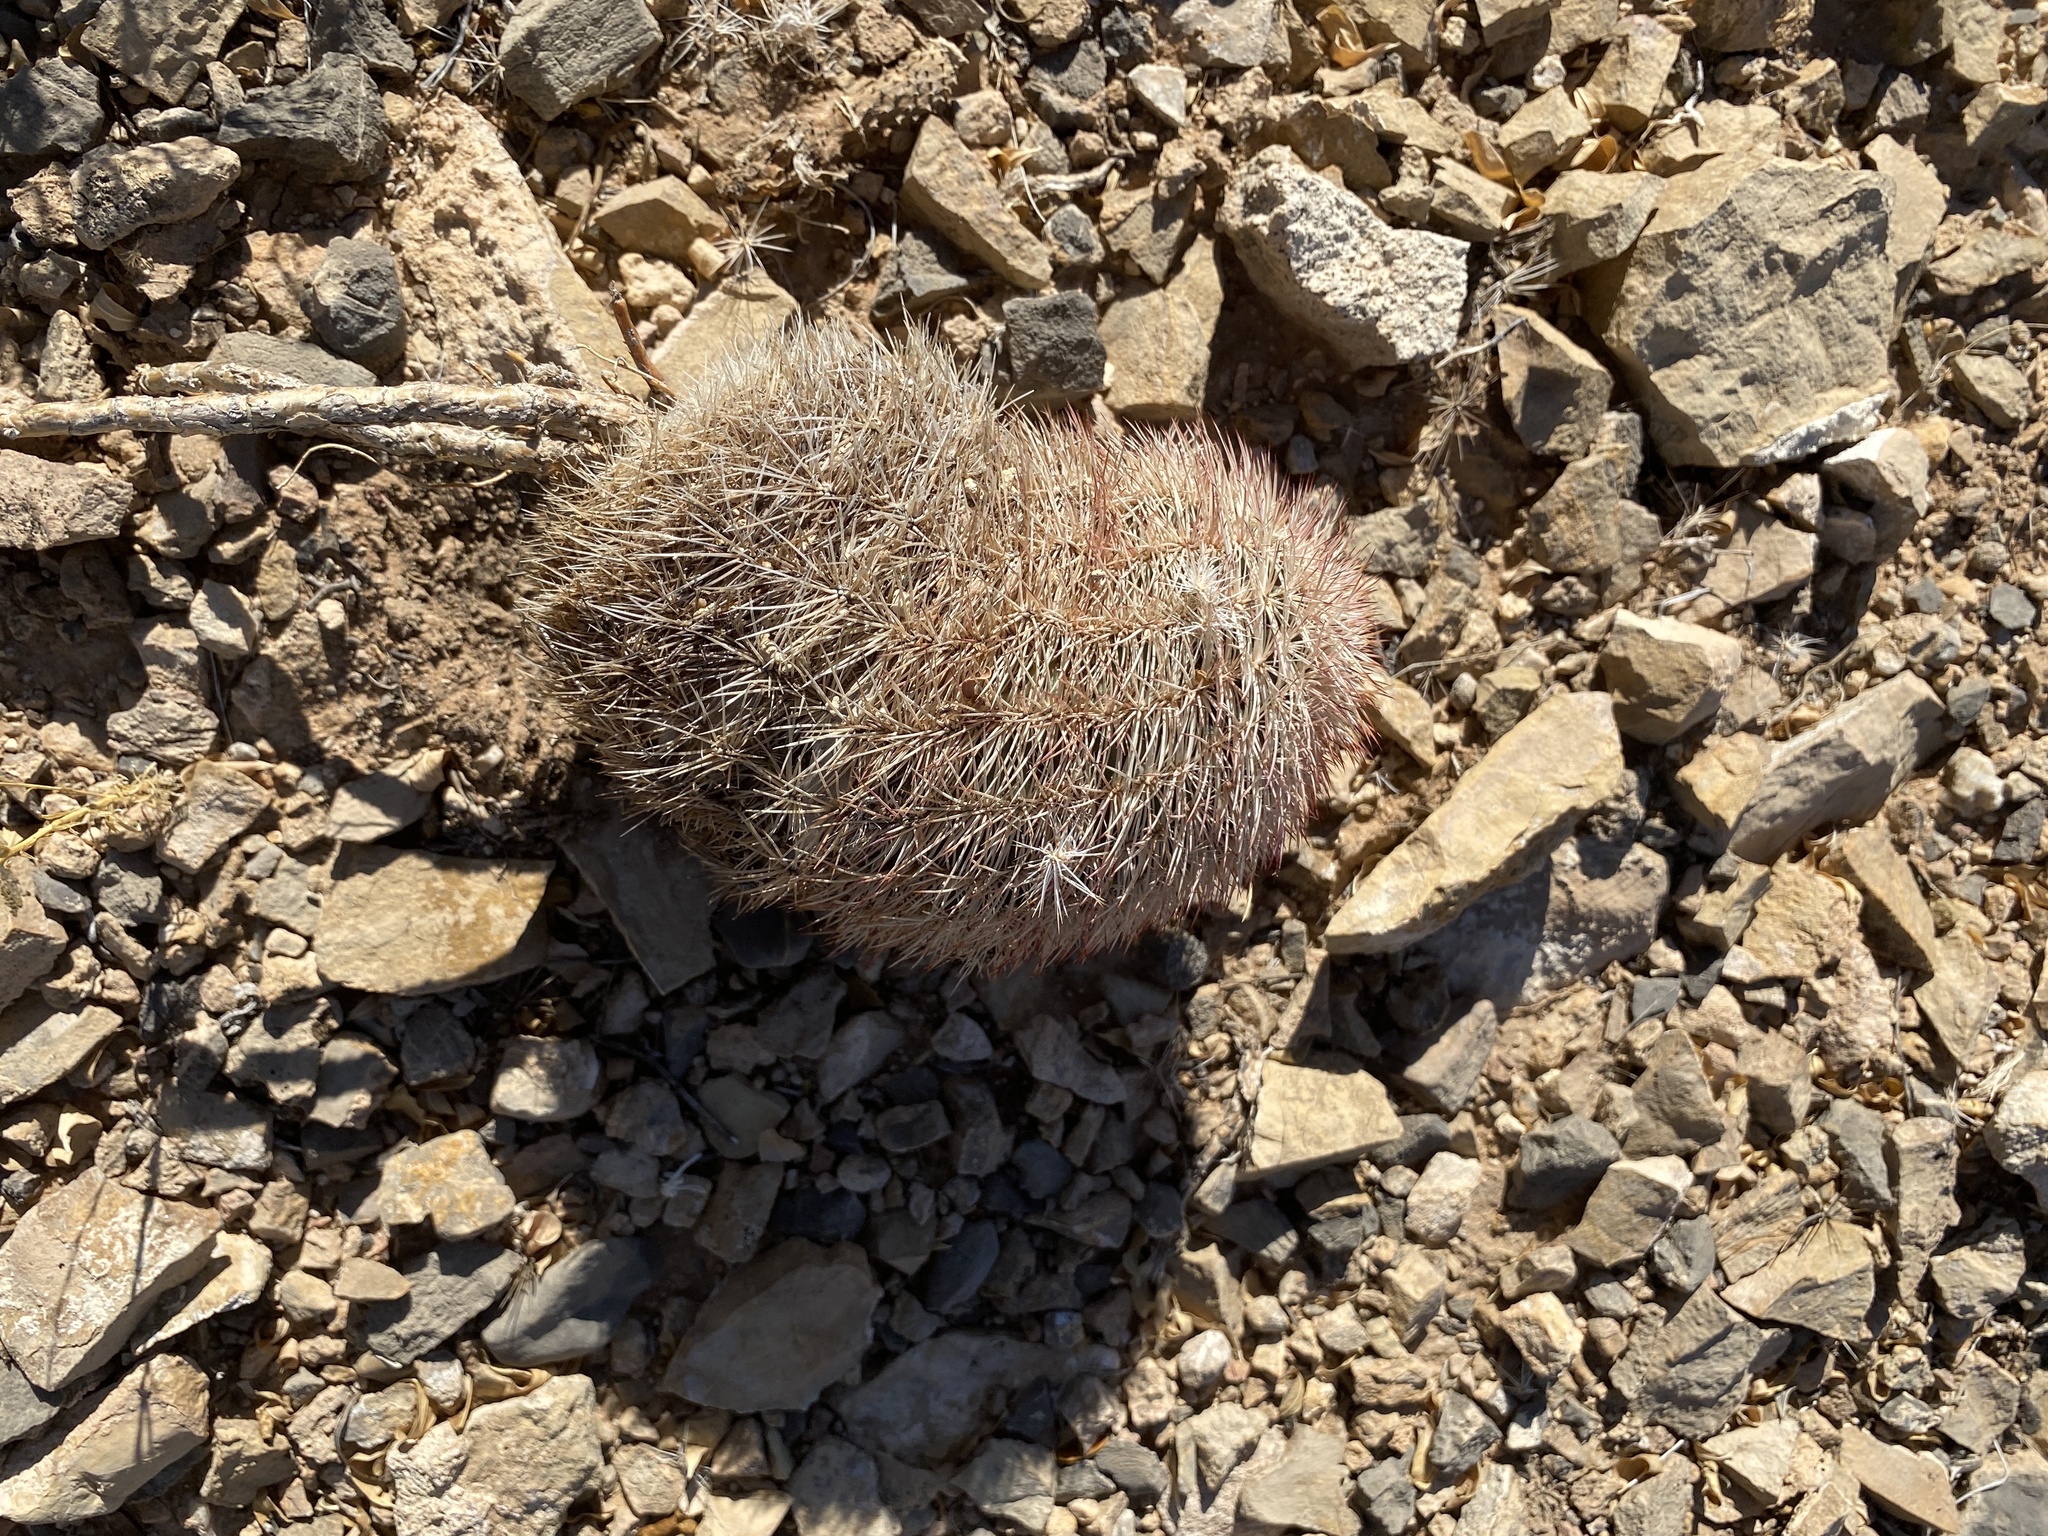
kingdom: Plantae
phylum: Tracheophyta
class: Magnoliopsida
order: Caryophyllales
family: Cactaceae
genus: Echinocereus
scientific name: Echinocereus dasyacanthus
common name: Spiny hedgehog cactus
